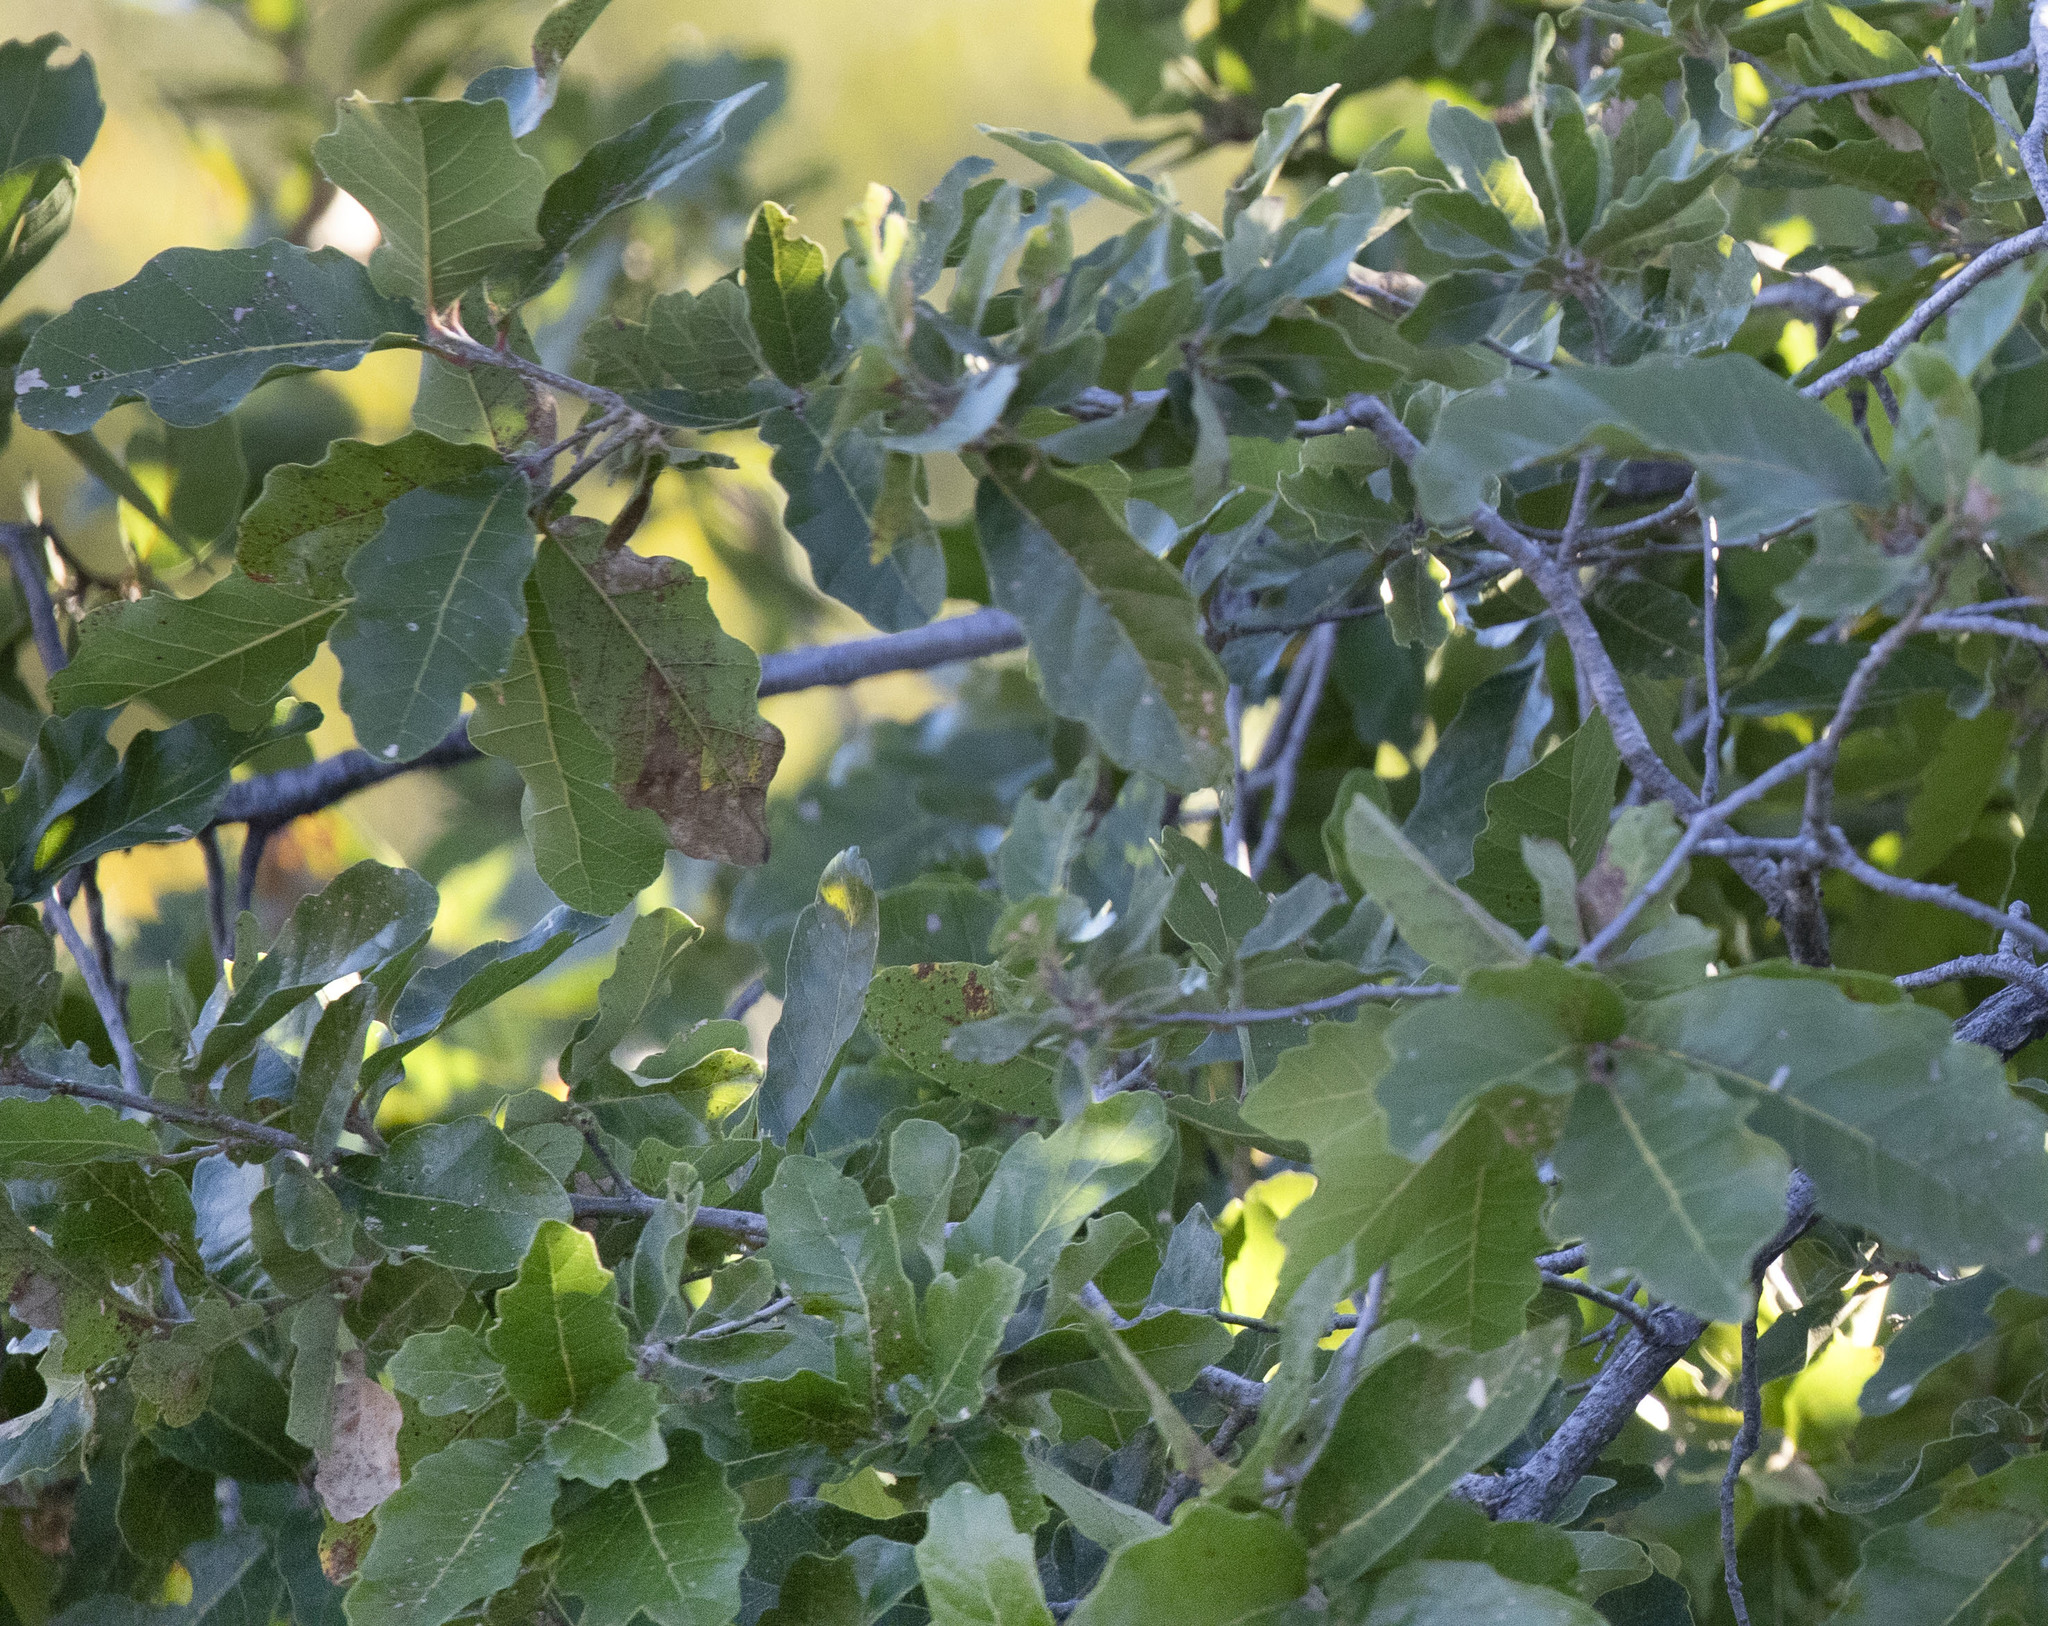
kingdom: Plantae
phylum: Tracheophyta
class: Magnoliopsida
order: Fagales
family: Fagaceae
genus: Quercus
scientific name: Quercus tuberculata
